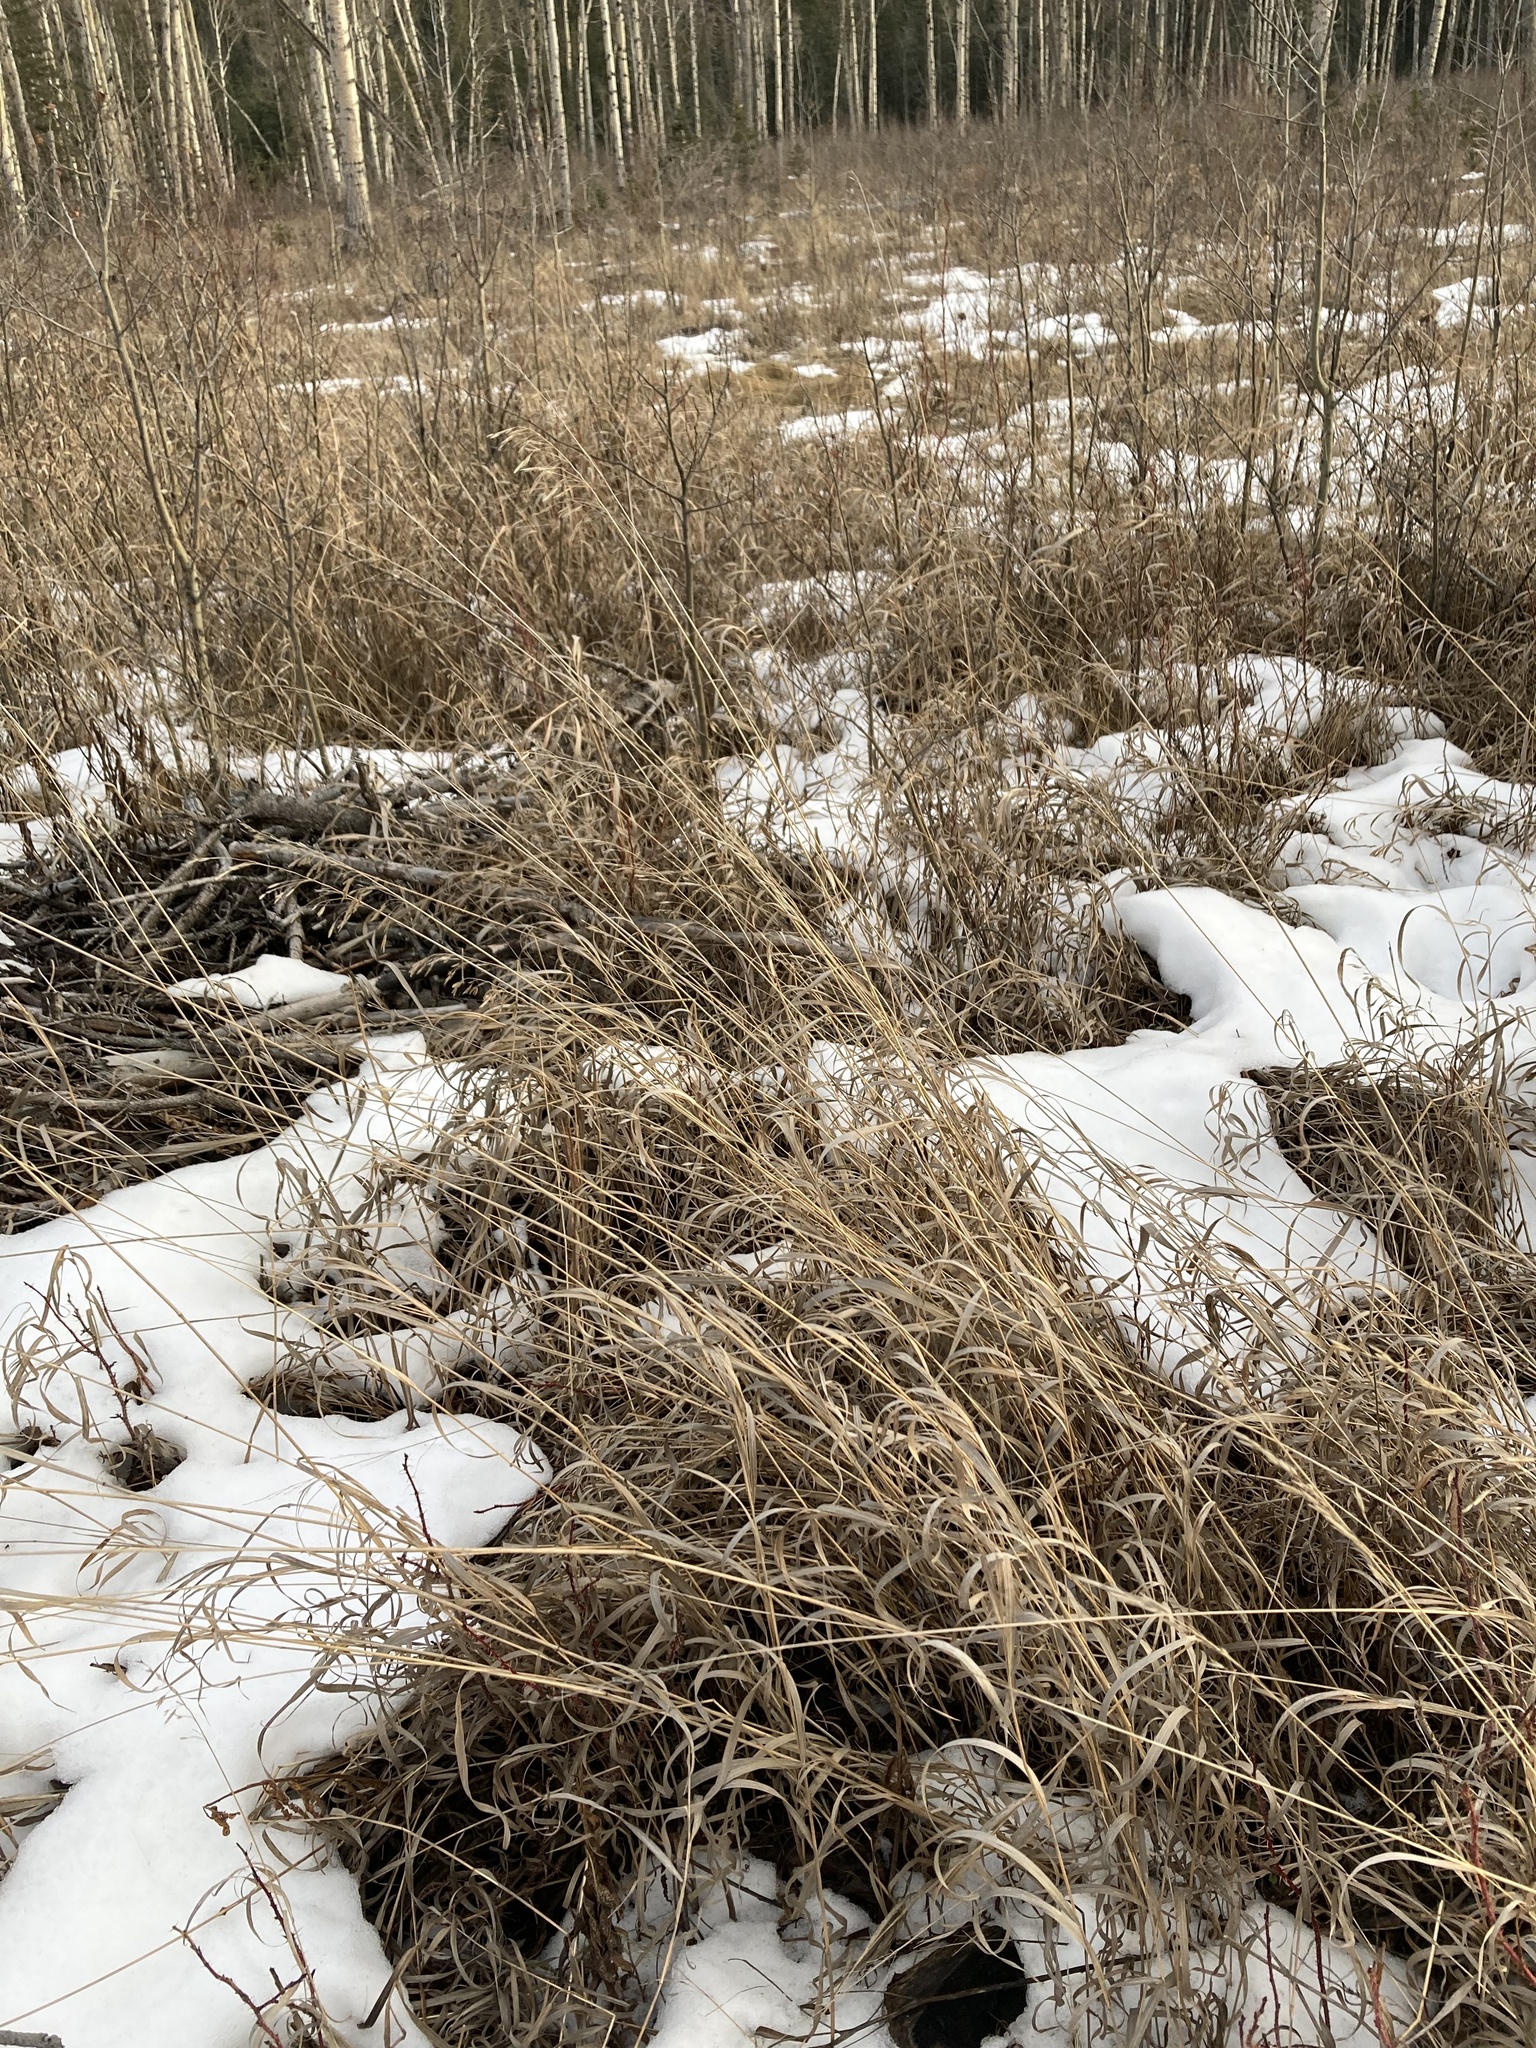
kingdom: Plantae
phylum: Tracheophyta
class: Liliopsida
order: Poales
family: Poaceae
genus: Bromus
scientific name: Bromus inermis
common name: Smooth brome
